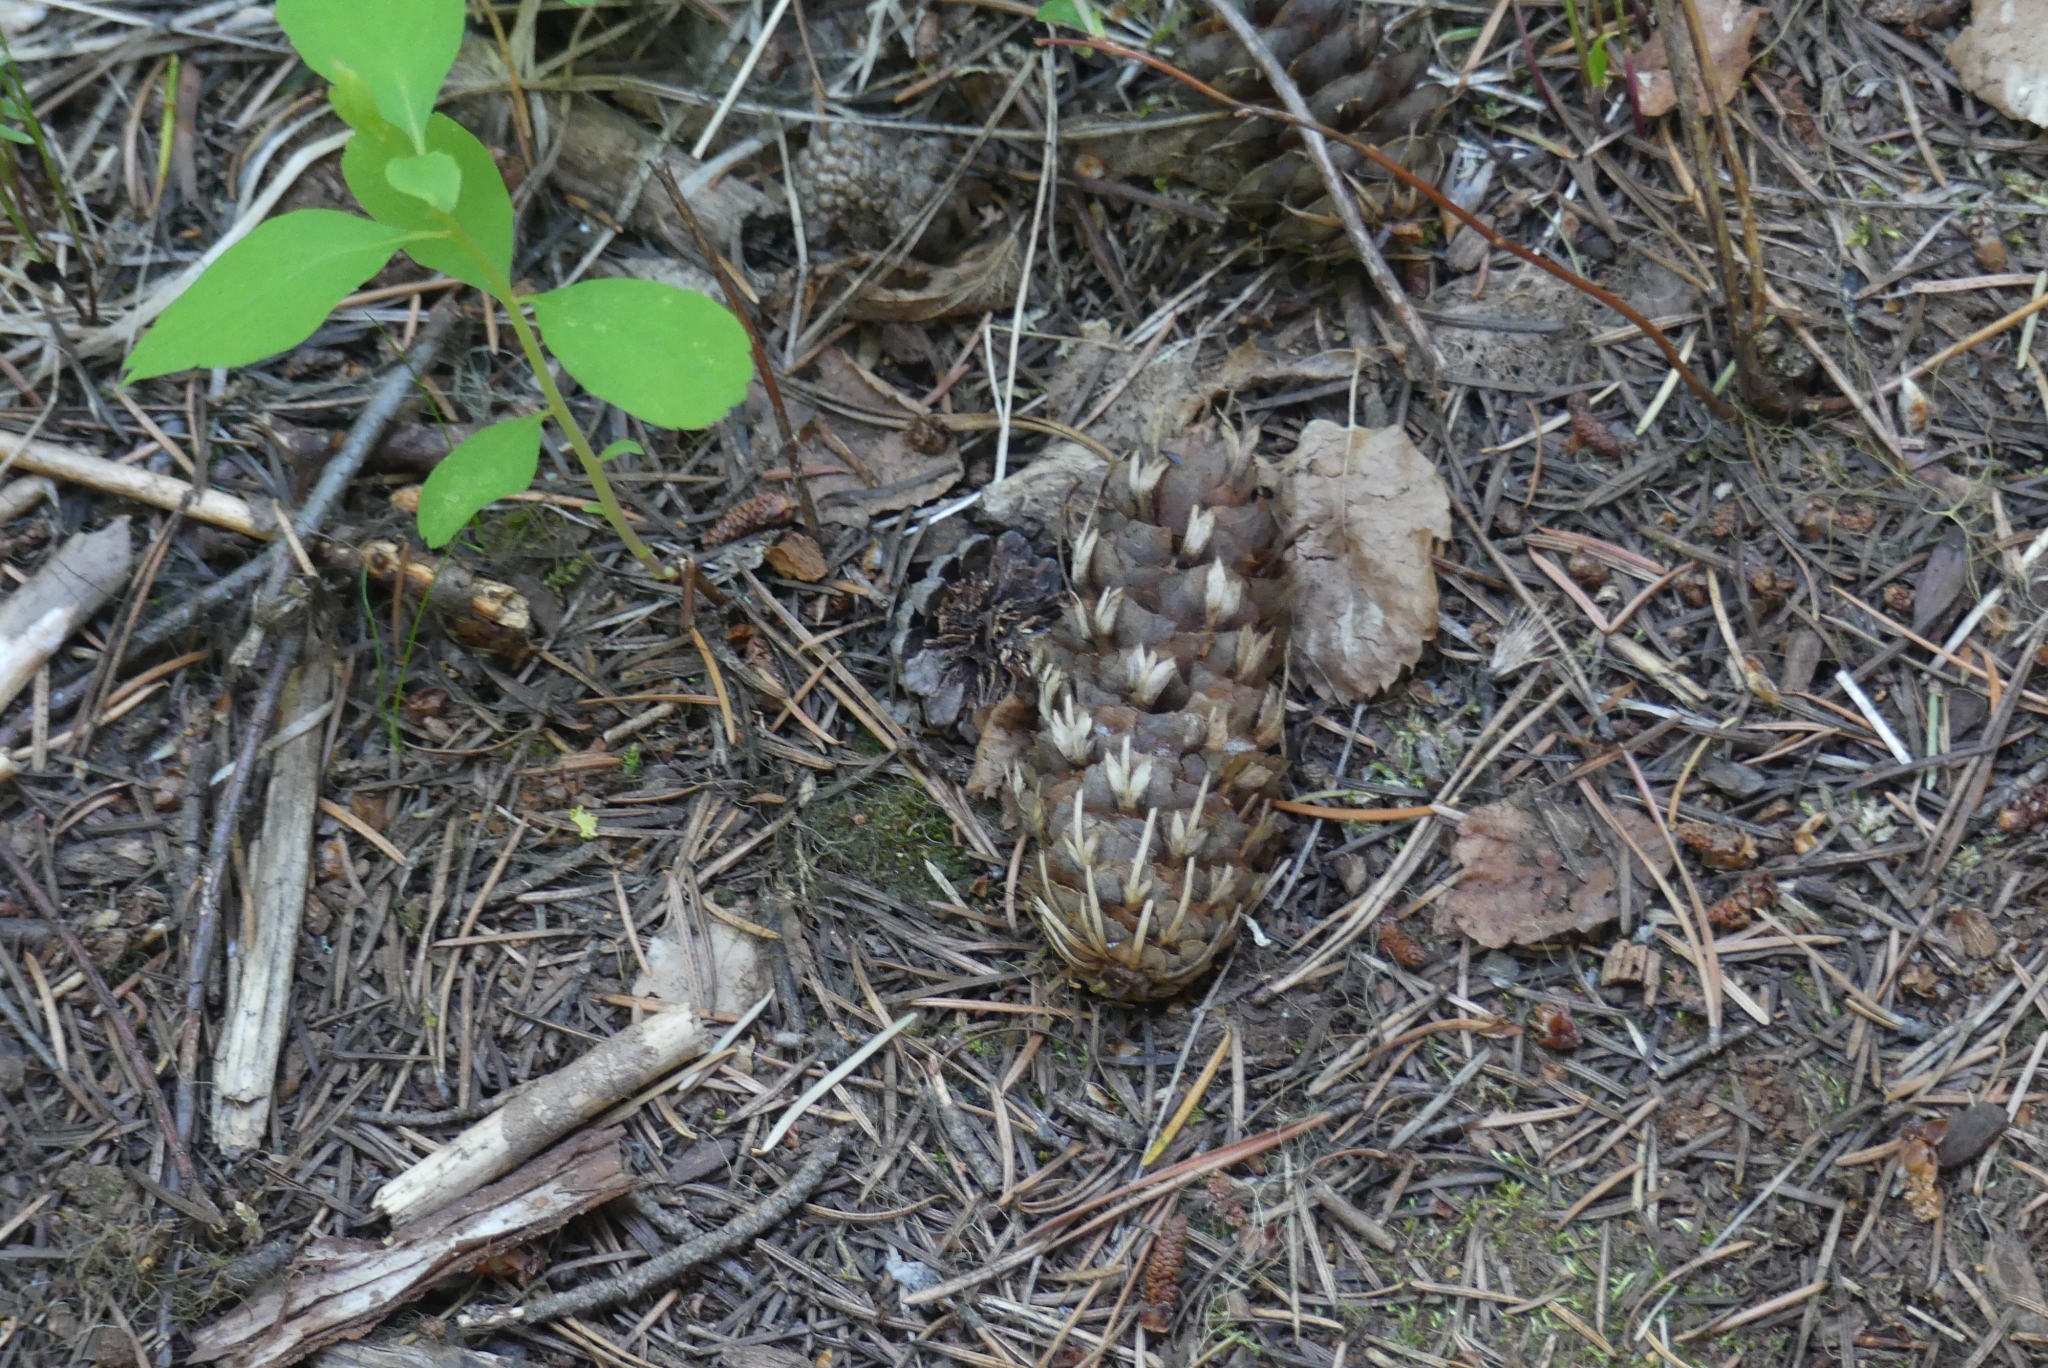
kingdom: Plantae
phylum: Tracheophyta
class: Pinopsida
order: Pinales
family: Pinaceae
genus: Pseudotsuga
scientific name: Pseudotsuga menziesii
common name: Douglas fir
